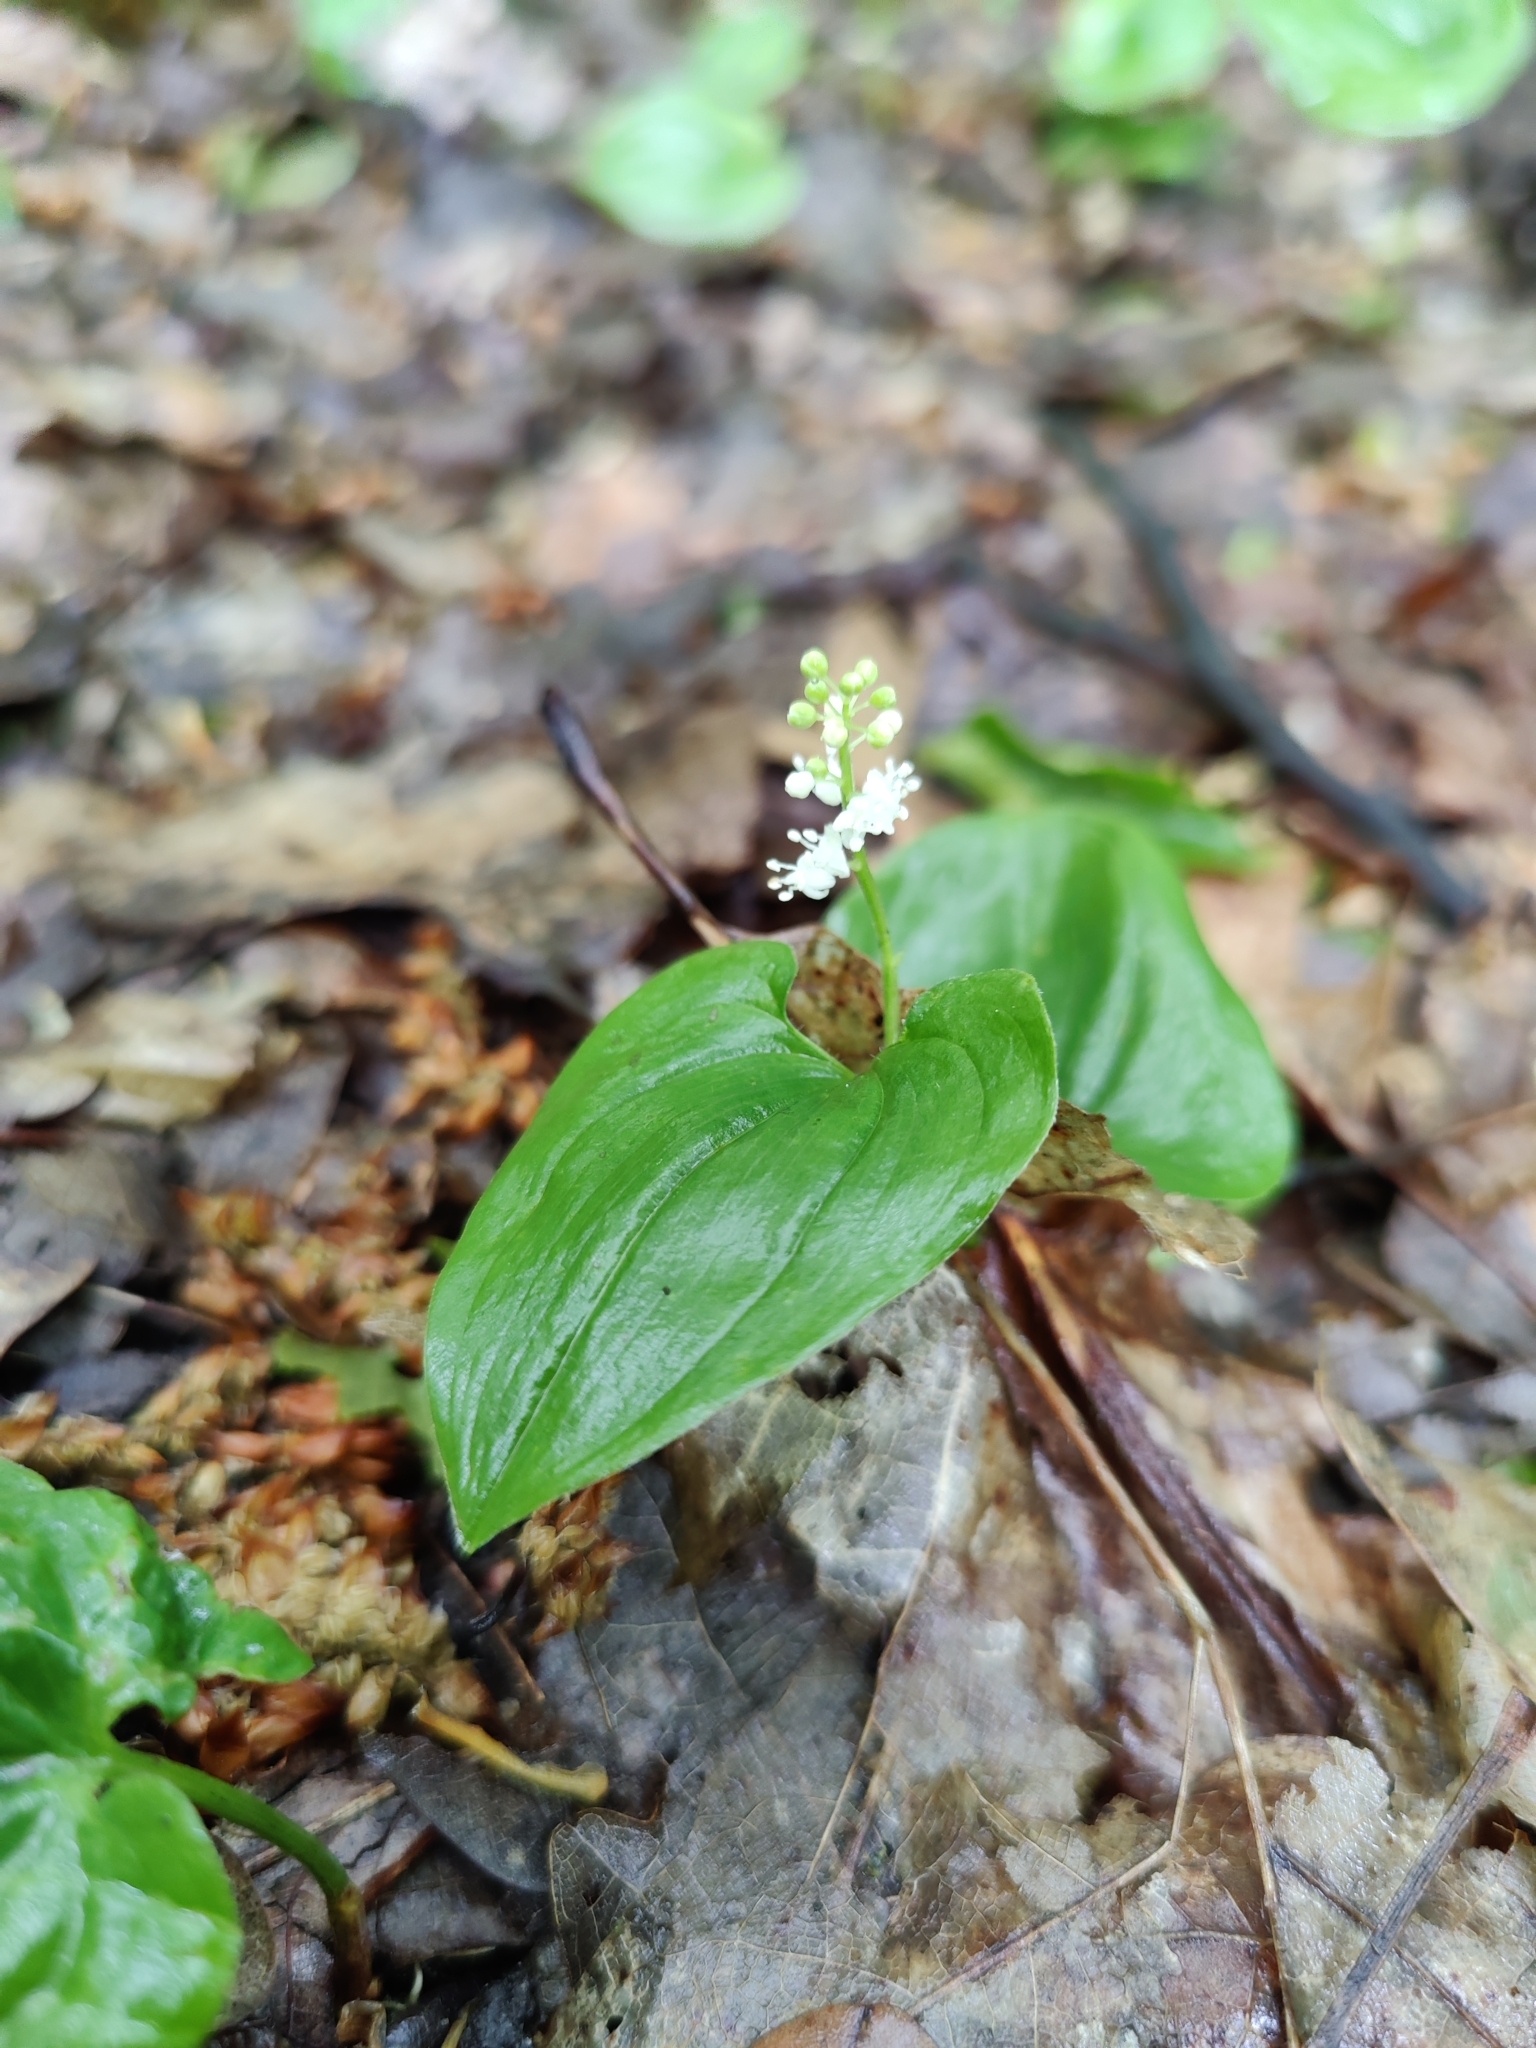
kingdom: Plantae
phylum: Tracheophyta
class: Liliopsida
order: Asparagales
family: Asparagaceae
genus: Maianthemum
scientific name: Maianthemum bifolium
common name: May lily
